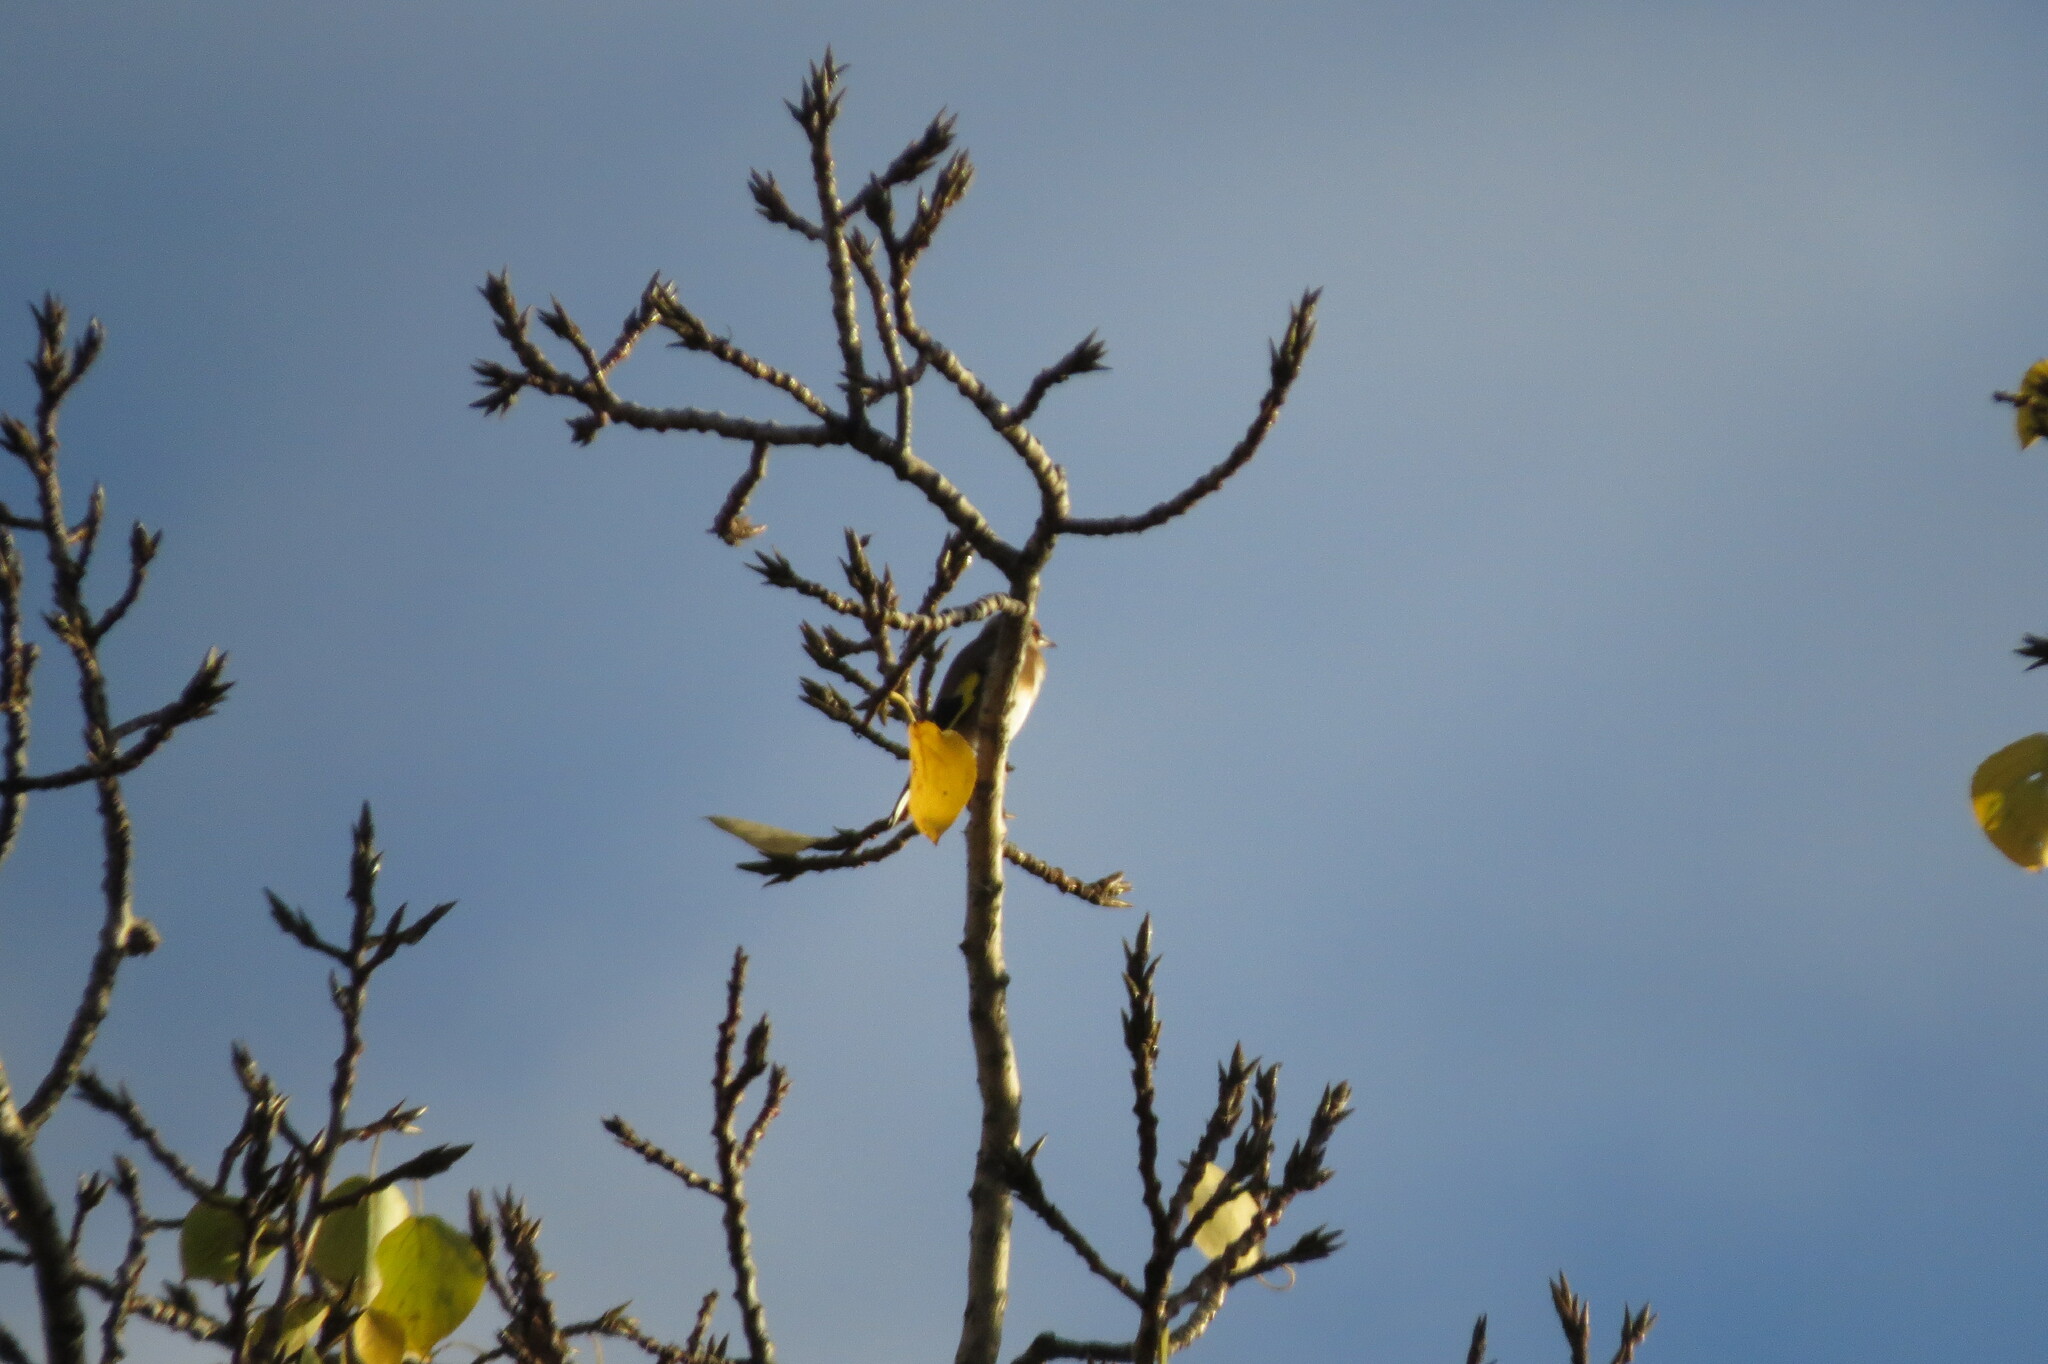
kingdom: Animalia
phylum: Chordata
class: Aves
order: Passeriformes
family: Fringillidae
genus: Carduelis
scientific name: Carduelis carduelis
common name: European goldfinch
